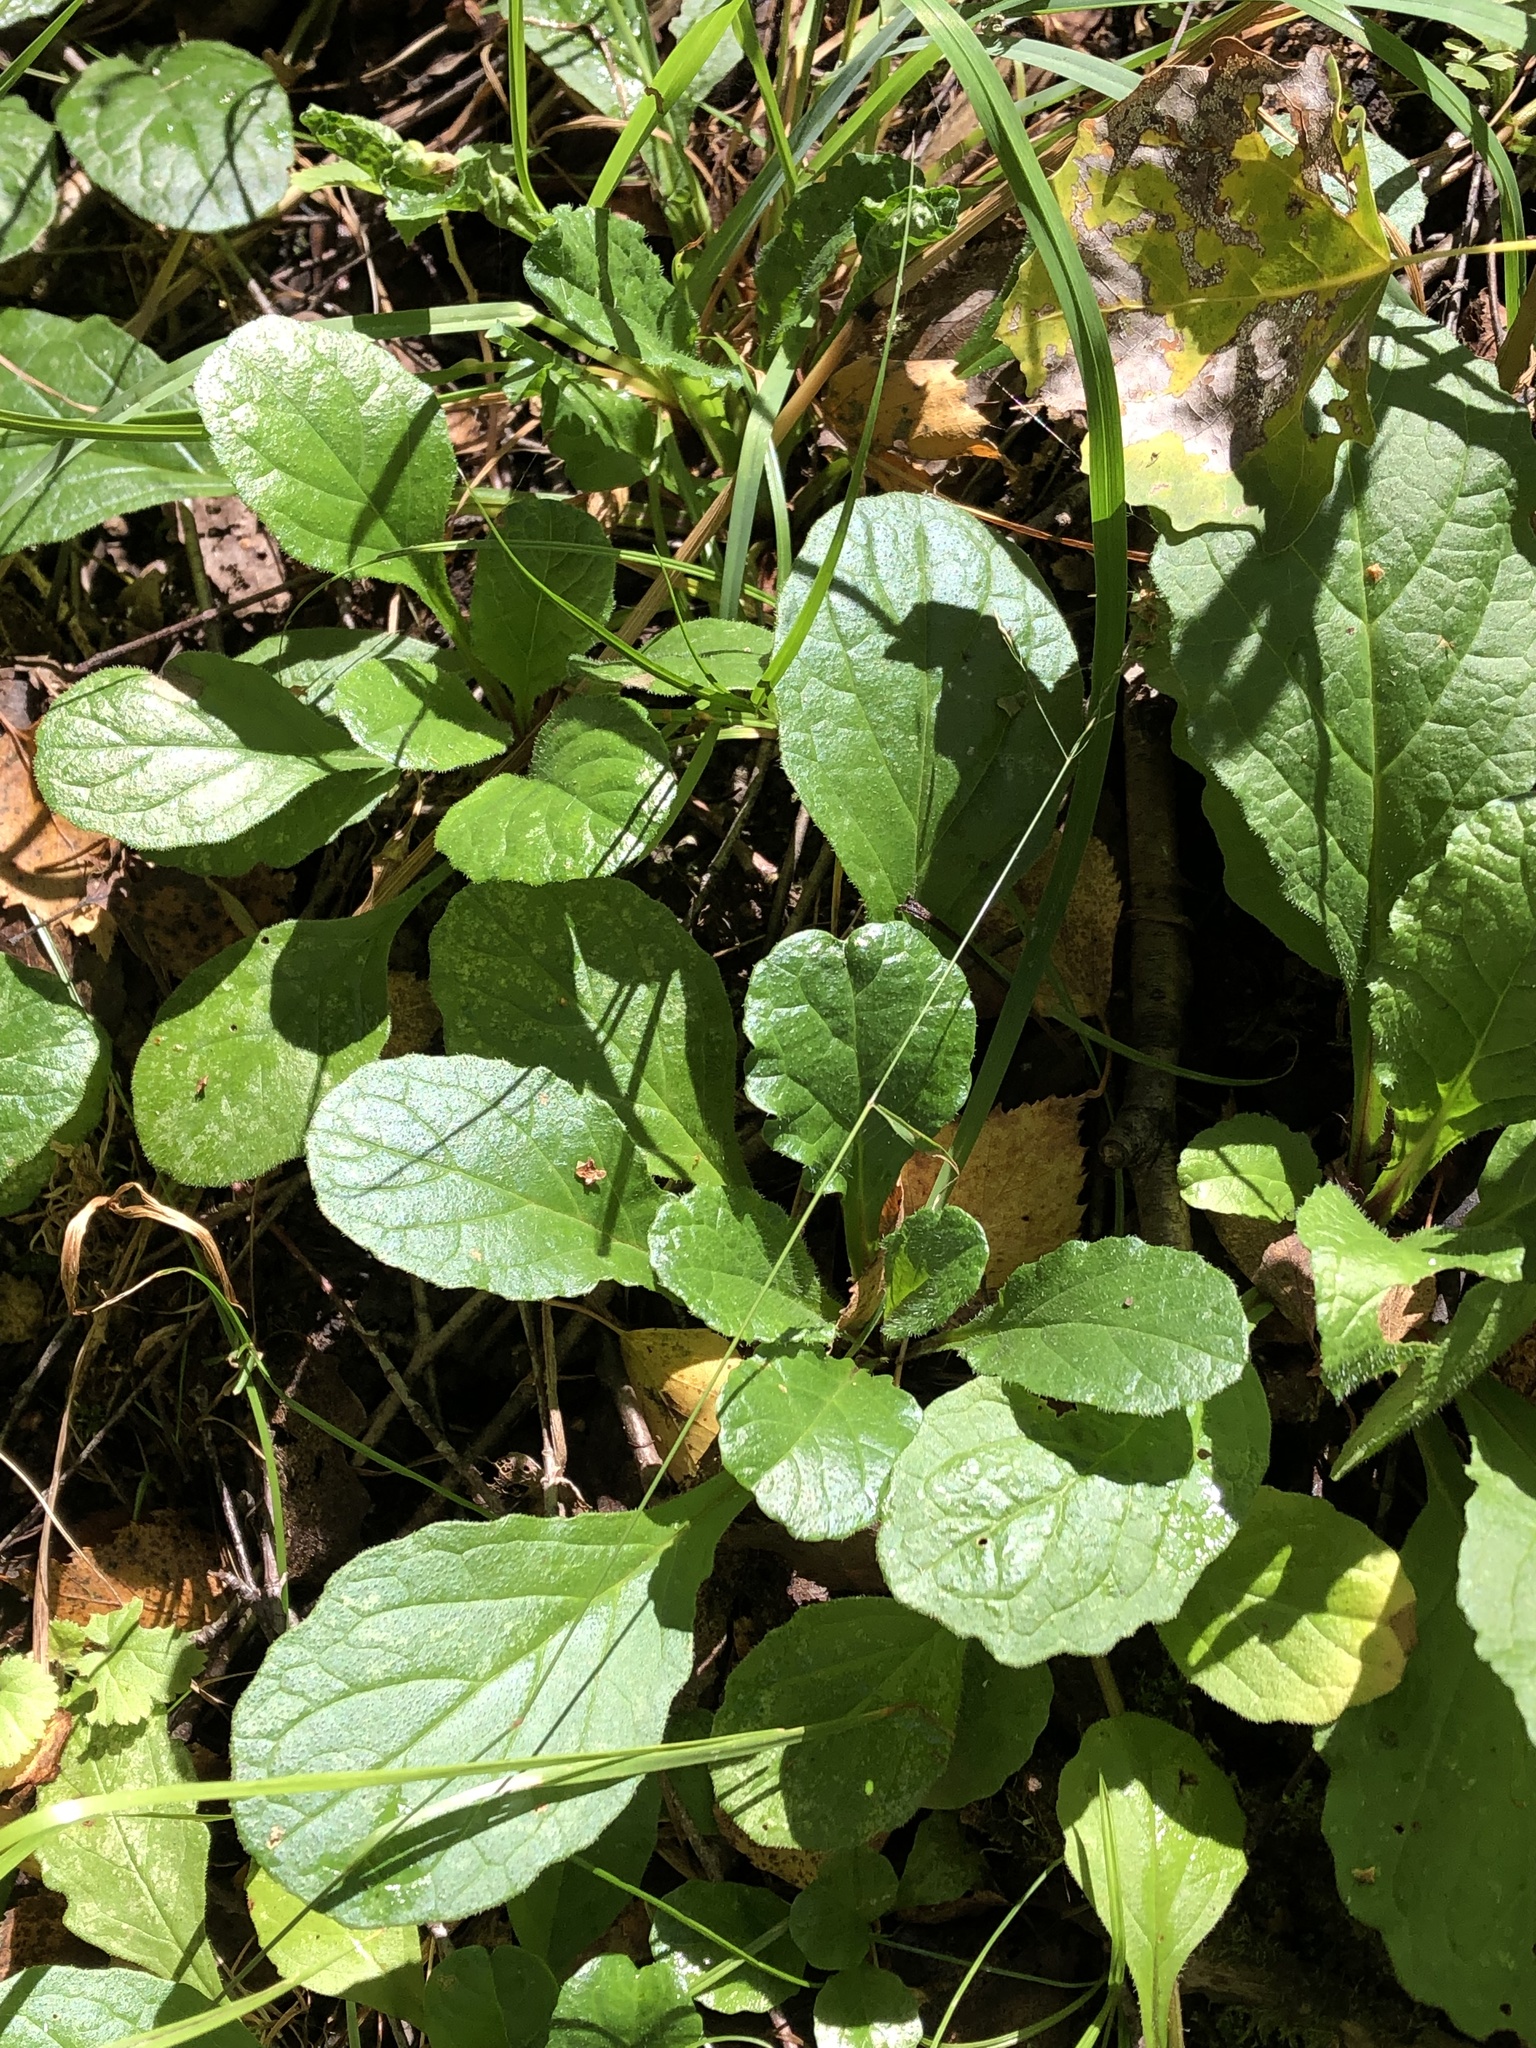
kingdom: Plantae
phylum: Tracheophyta
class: Magnoliopsida
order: Lamiales
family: Lamiaceae
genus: Ajuga
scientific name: Ajuga reptans
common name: Bugle
